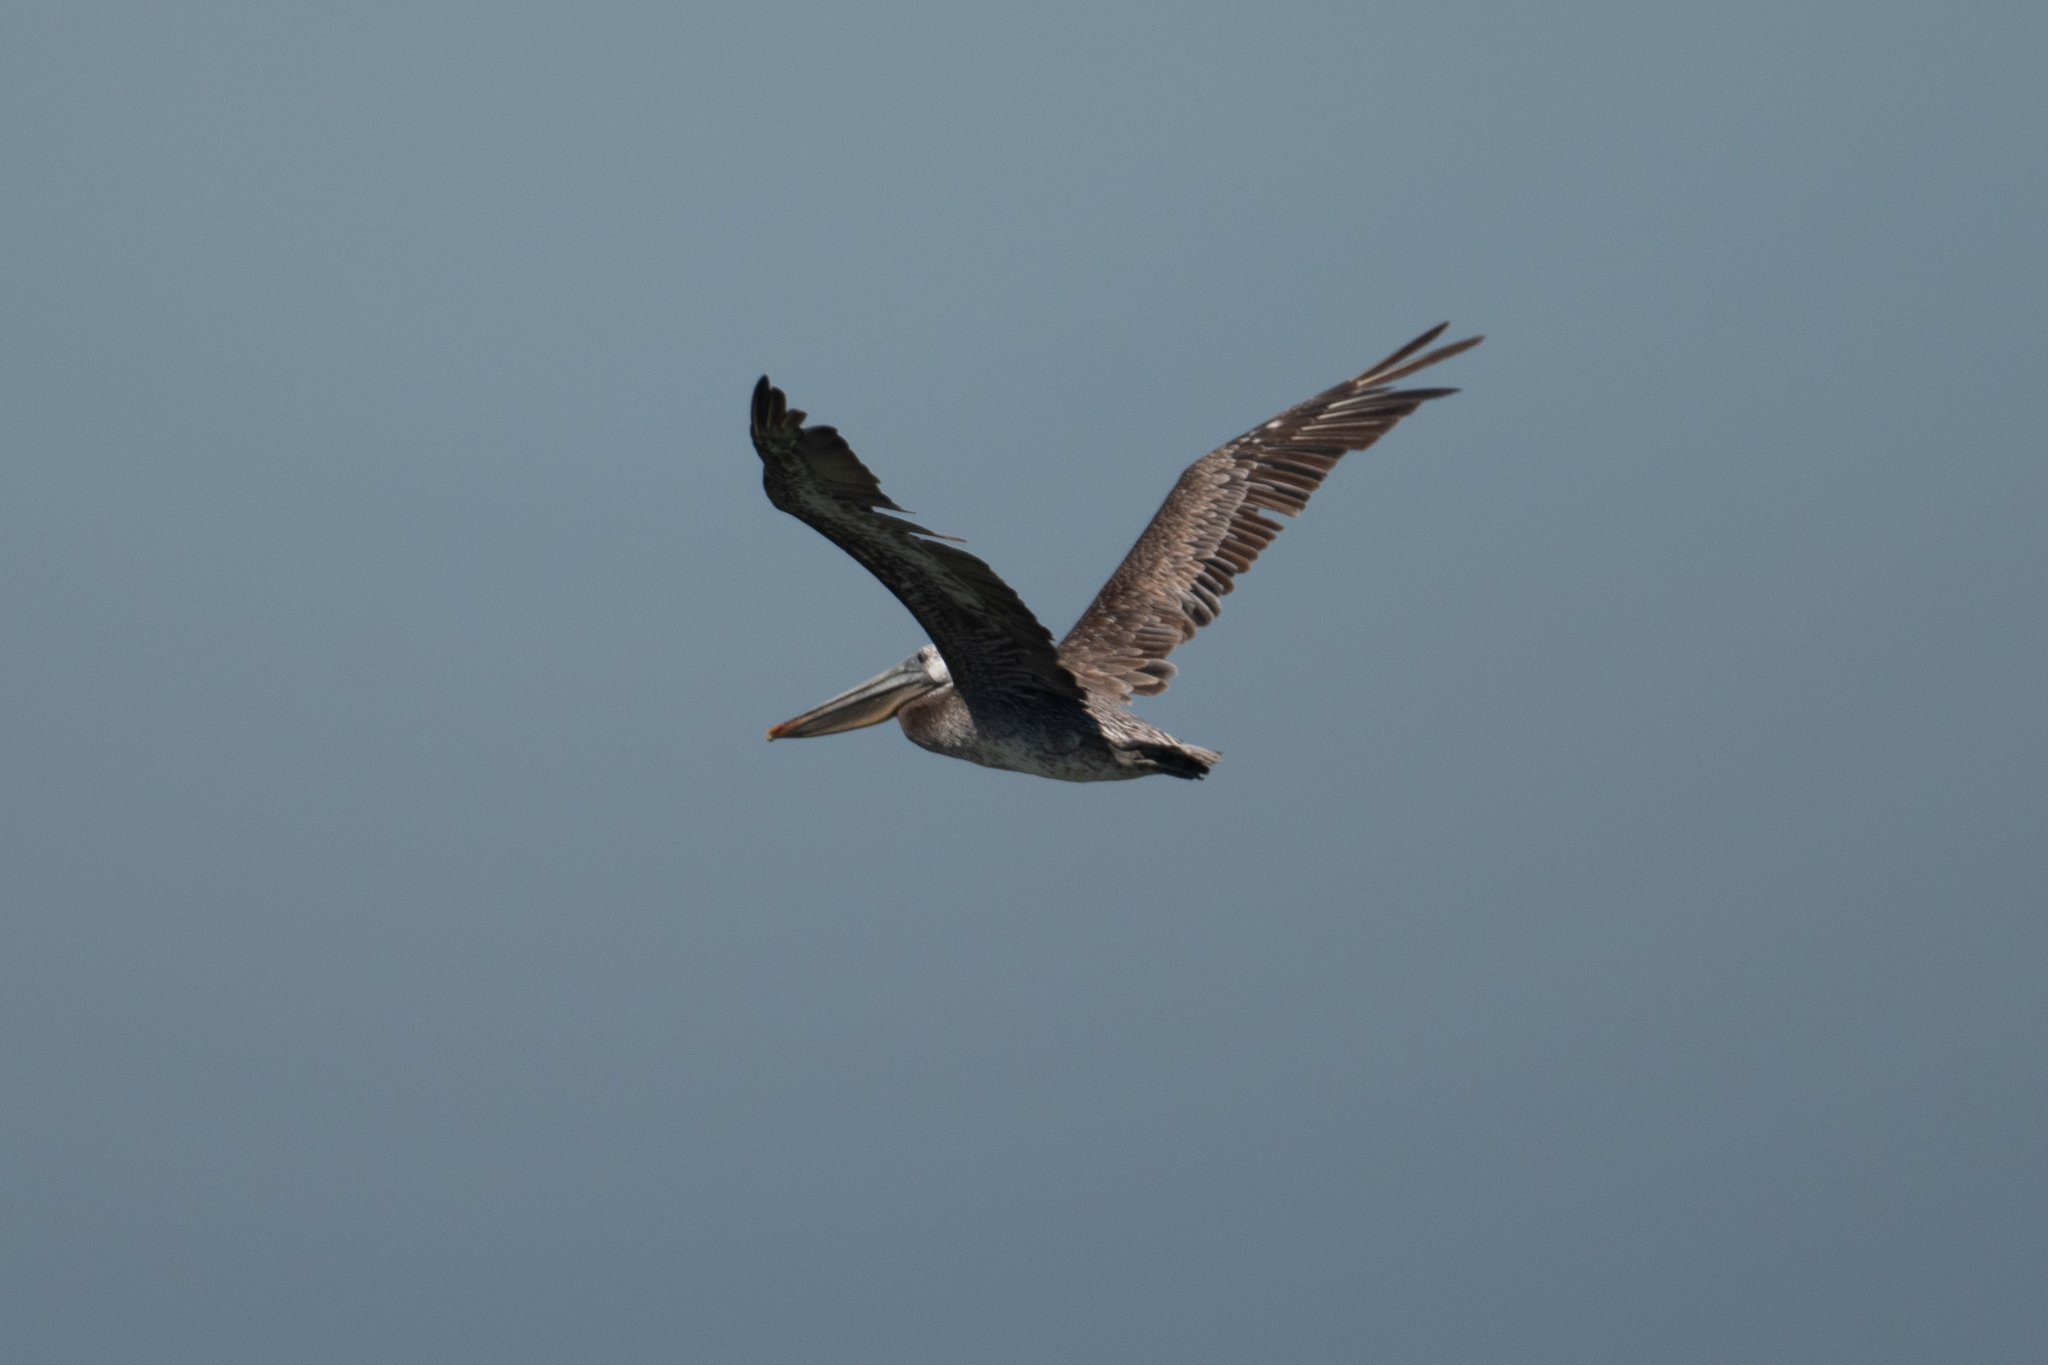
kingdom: Animalia
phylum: Chordata
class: Aves
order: Pelecaniformes
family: Pelecanidae
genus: Pelecanus
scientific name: Pelecanus occidentalis
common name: Brown pelican
